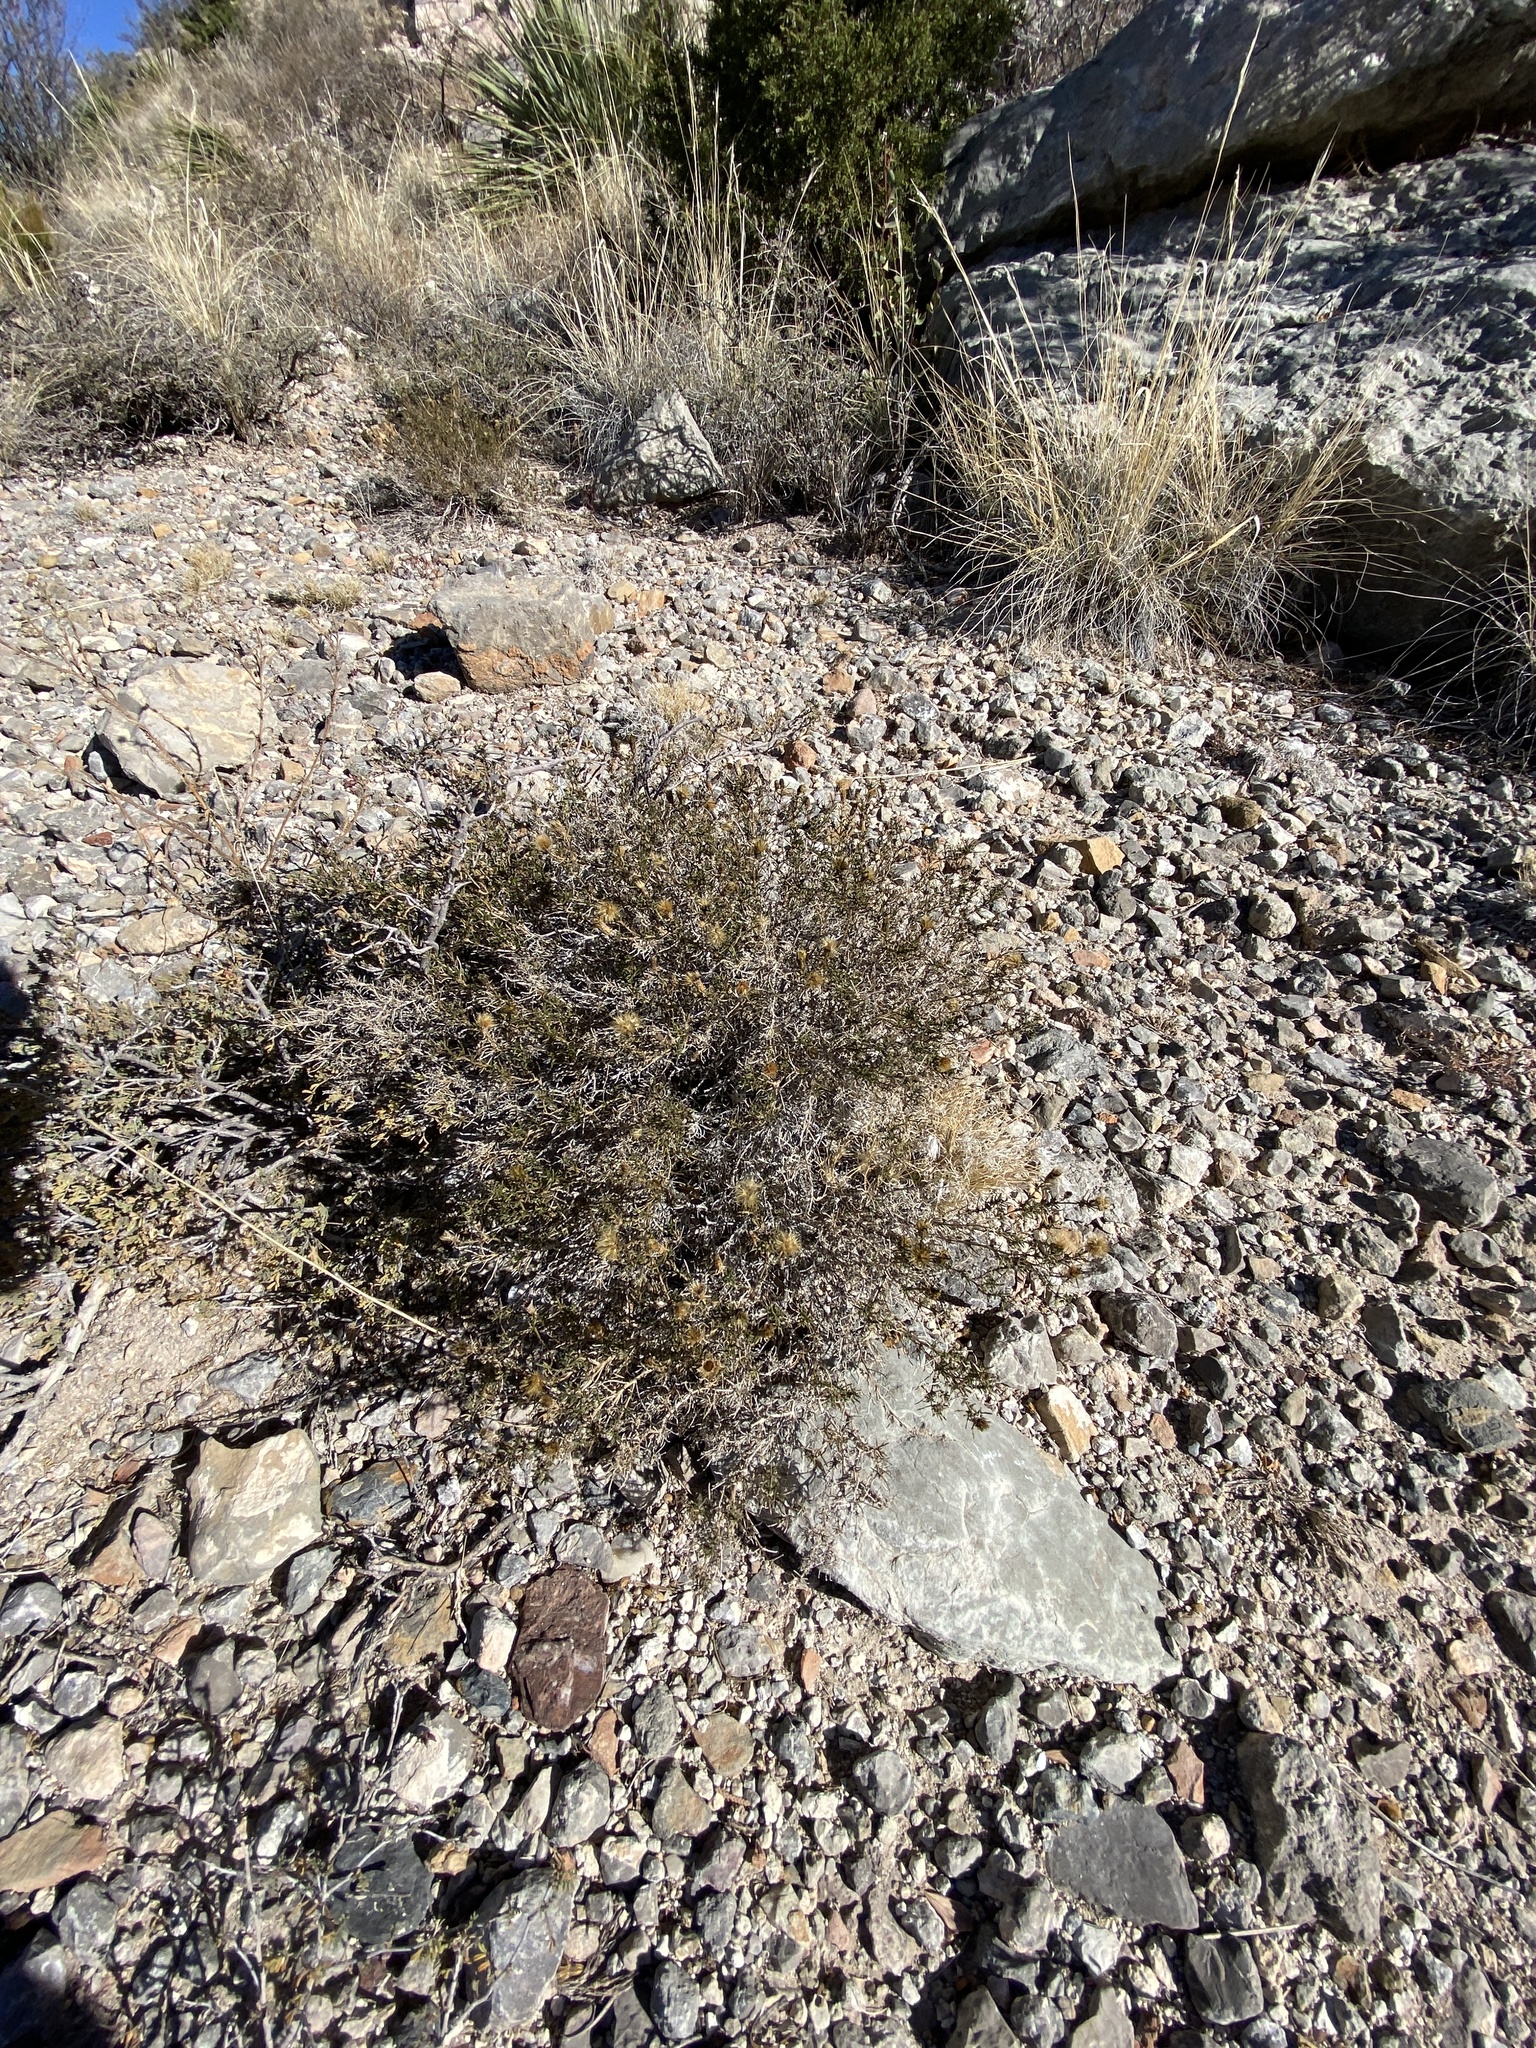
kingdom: Plantae
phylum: Tracheophyta
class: Magnoliopsida
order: Asterales
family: Asteraceae
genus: Thymophylla
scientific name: Thymophylla acerosa
